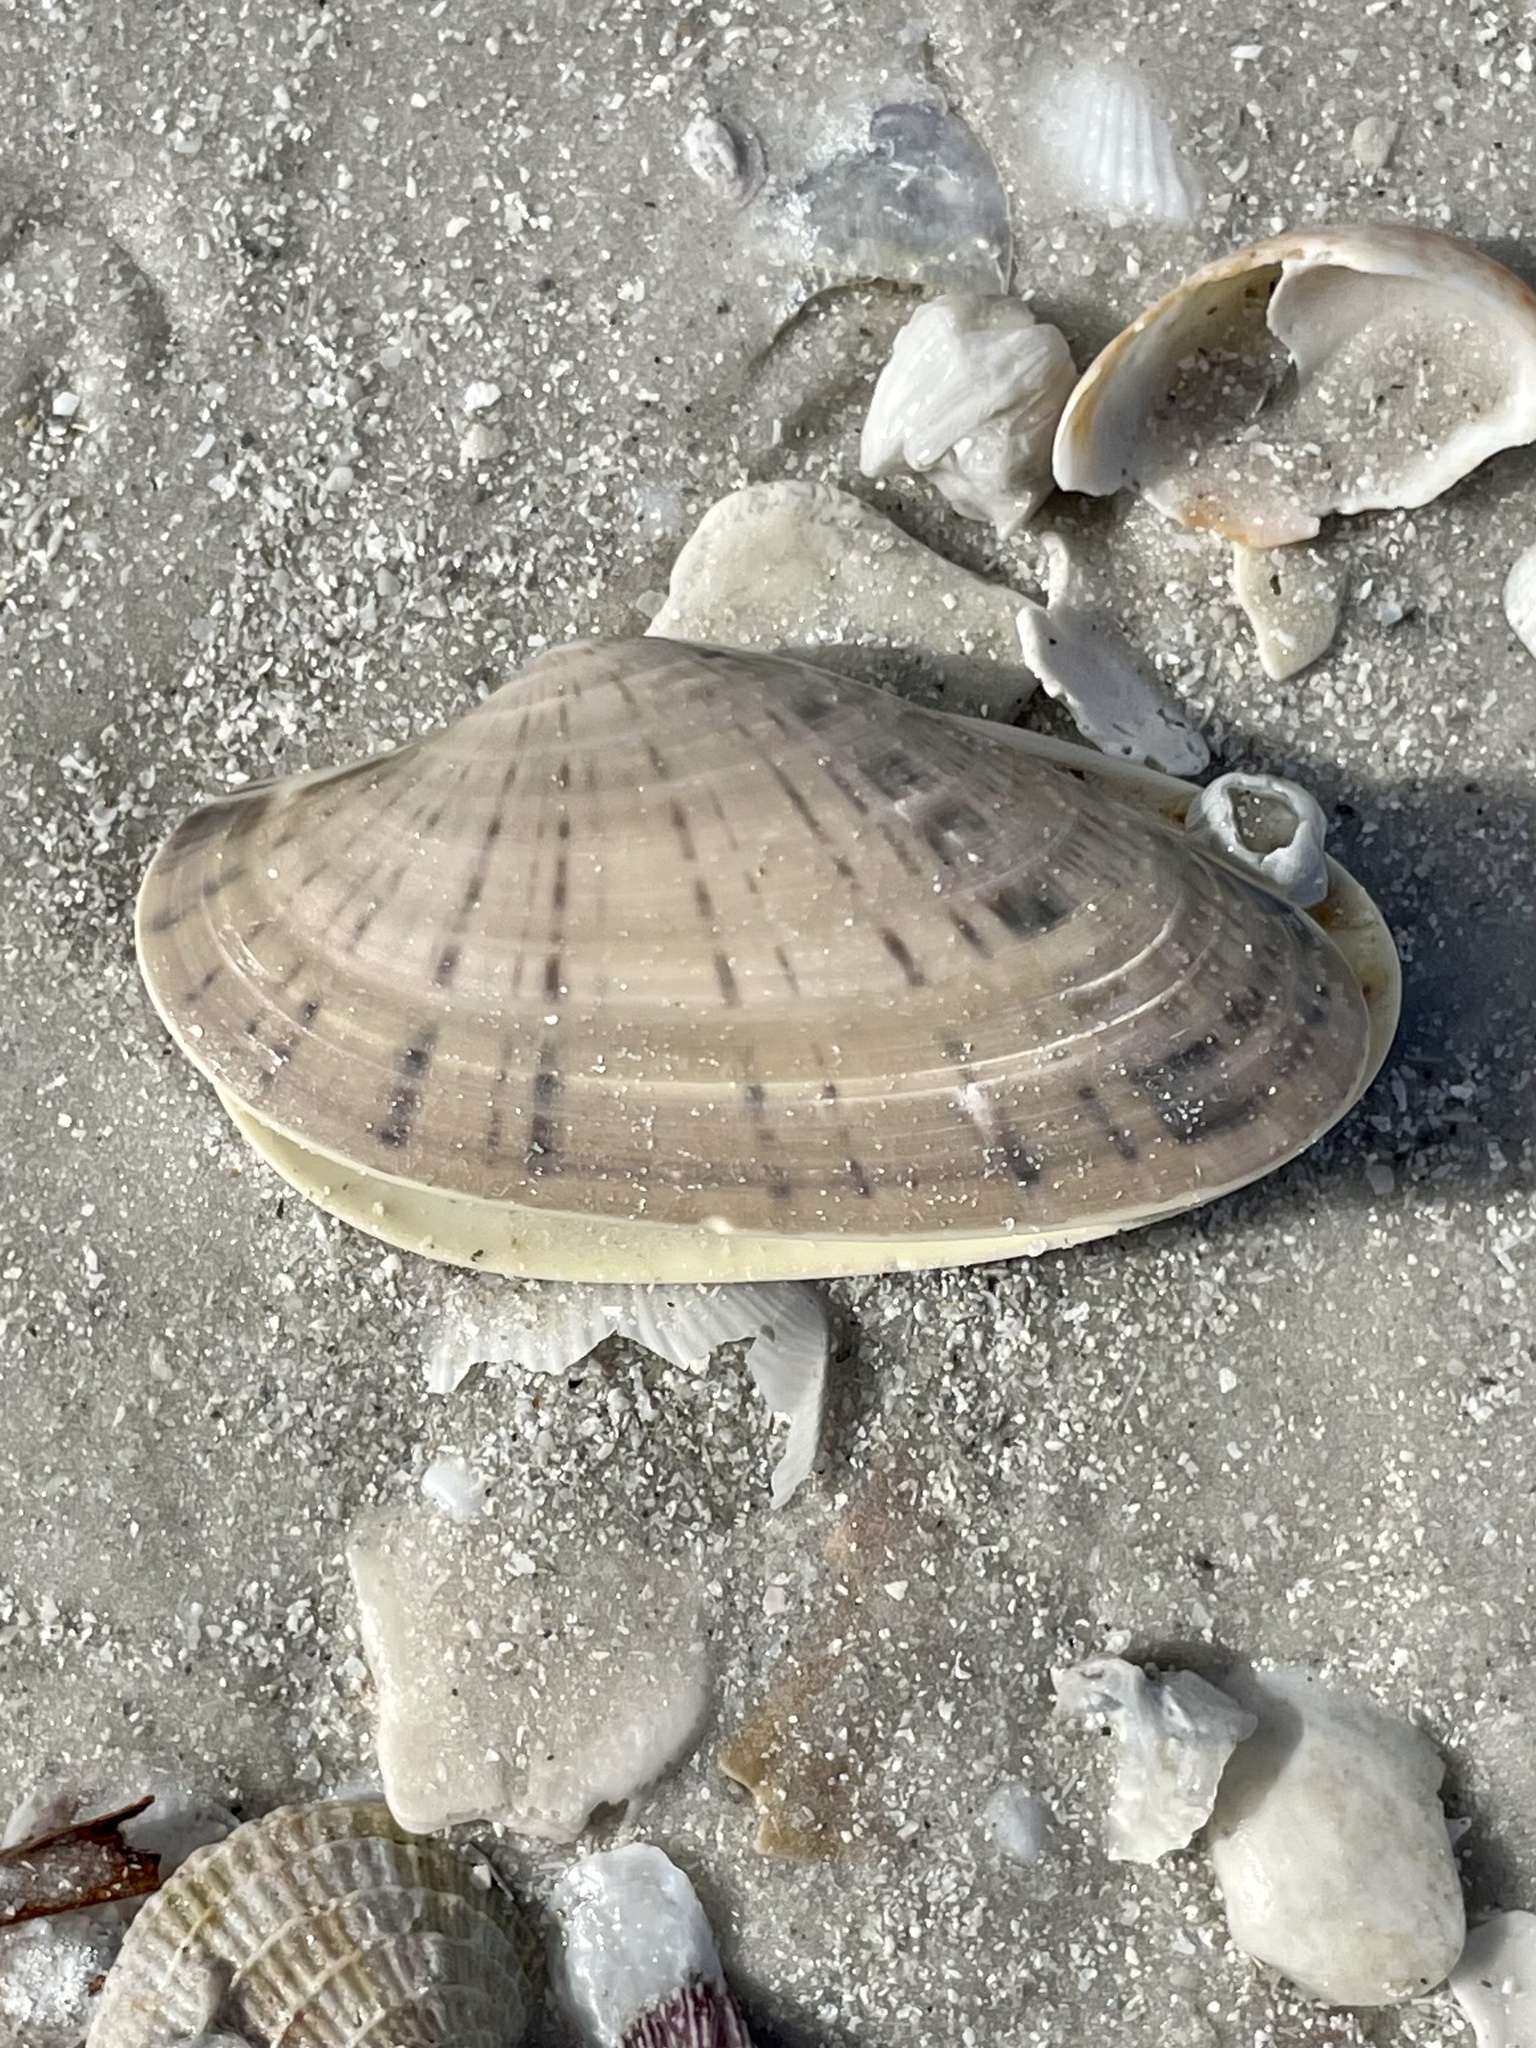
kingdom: Animalia
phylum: Mollusca
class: Bivalvia
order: Venerida
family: Veneridae
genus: Macrocallista
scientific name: Macrocallista nimbosa
